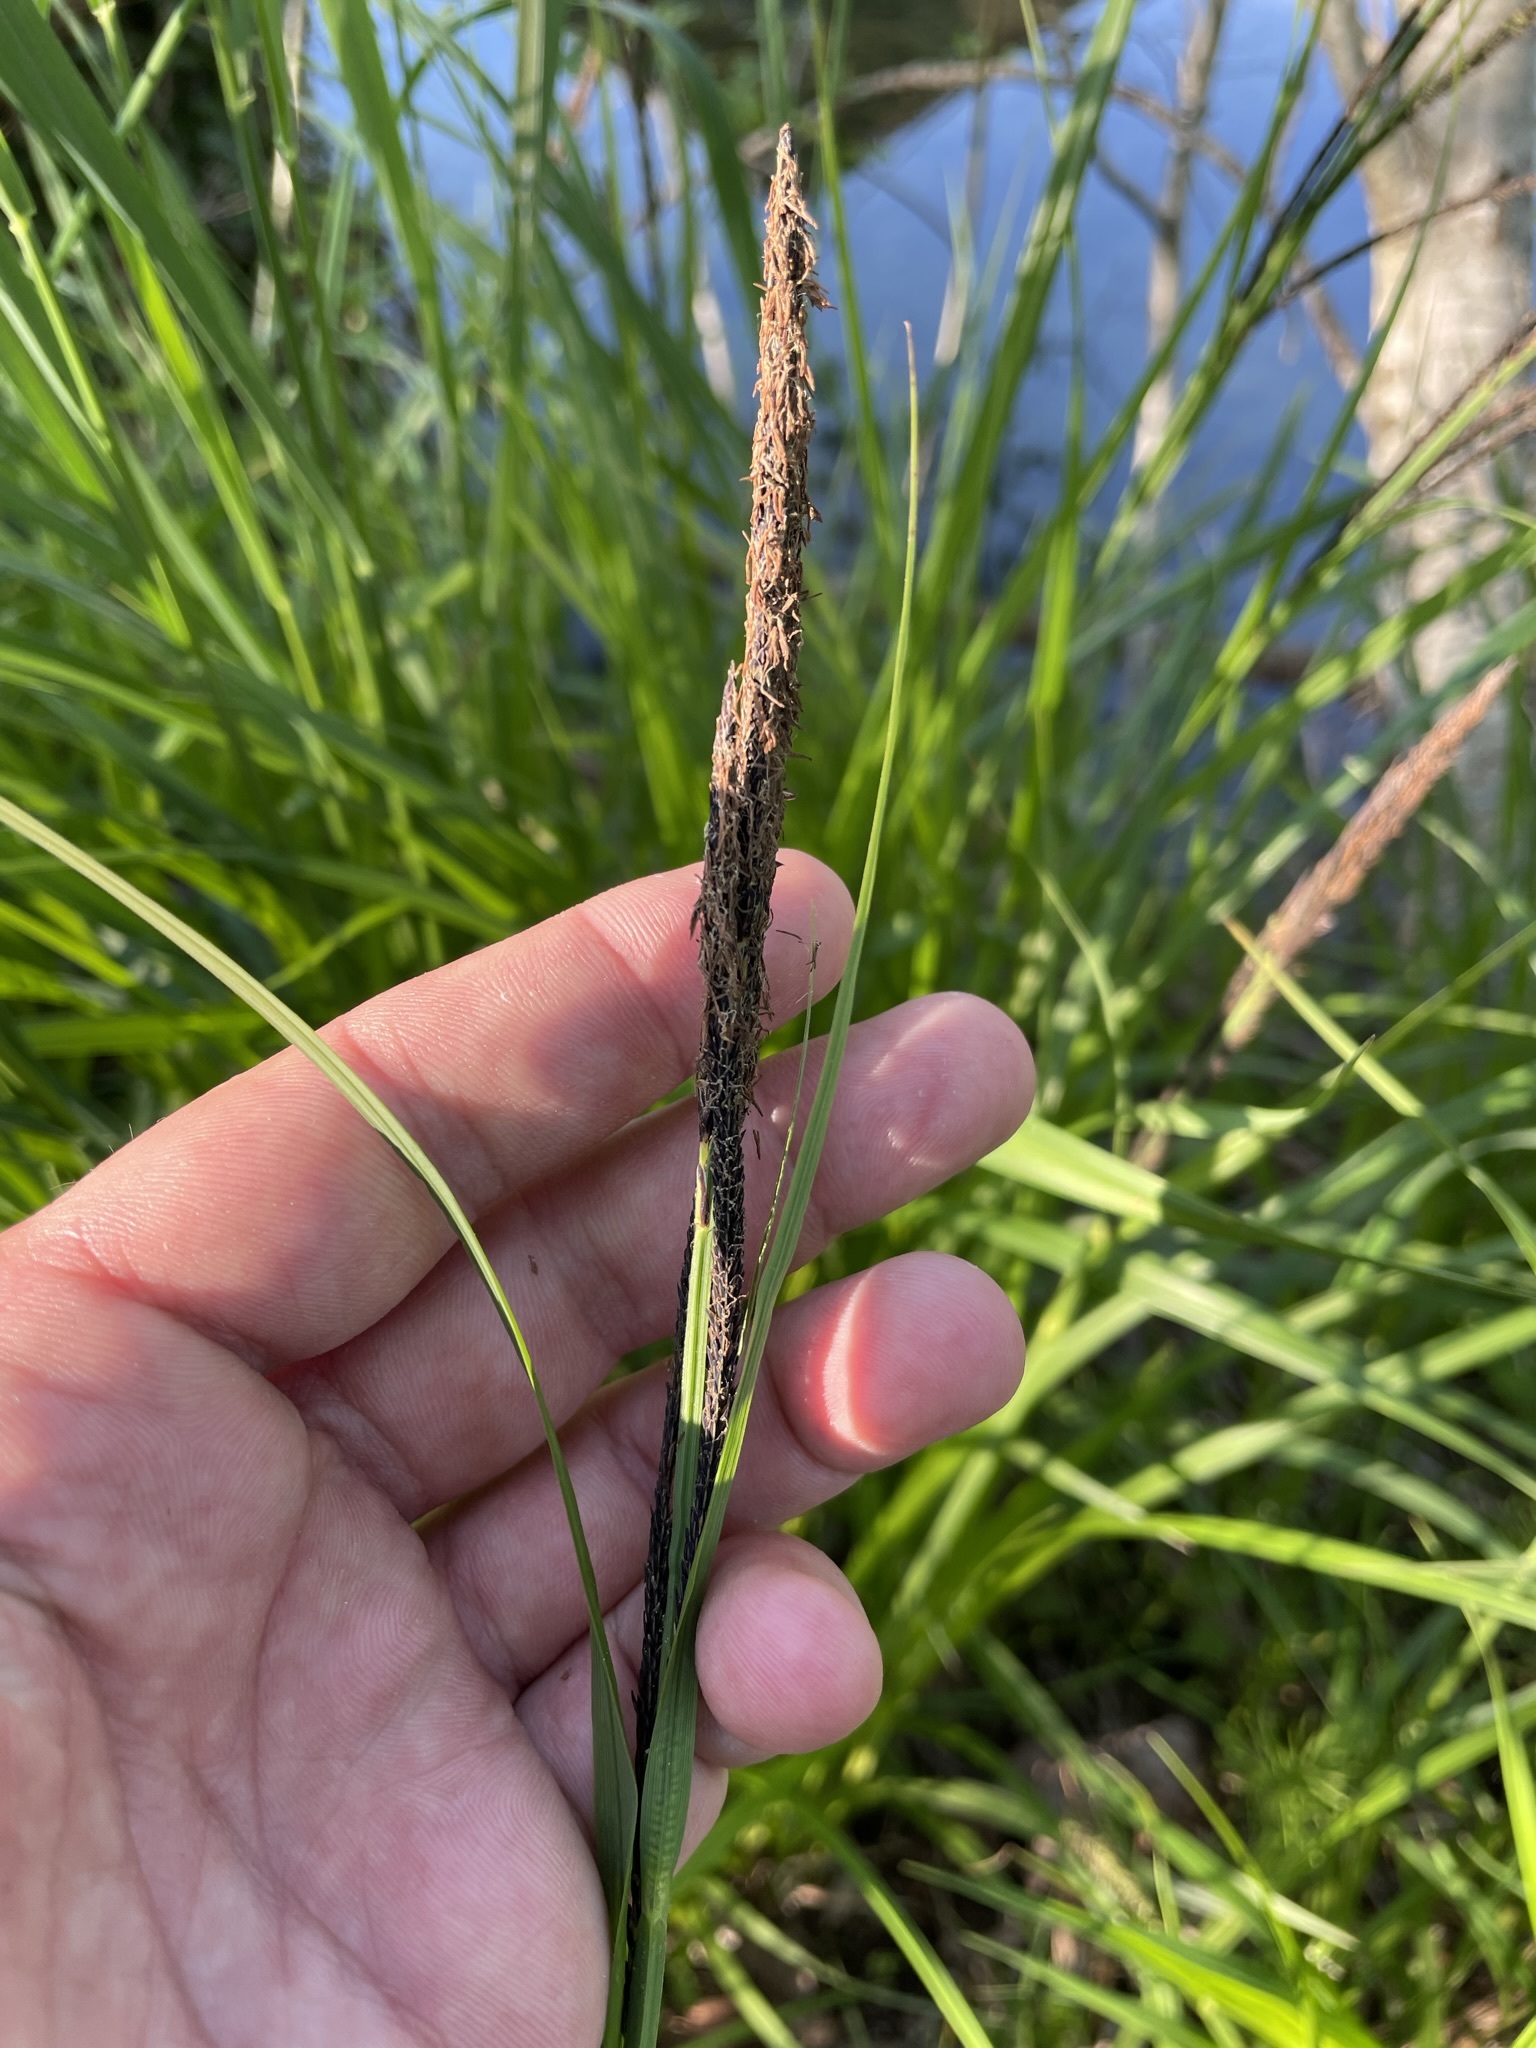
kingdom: Plantae
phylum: Tracheophyta
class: Liliopsida
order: Poales
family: Cyperaceae
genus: Carex
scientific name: Carex acutiformis
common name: Lesser pond-sedge
